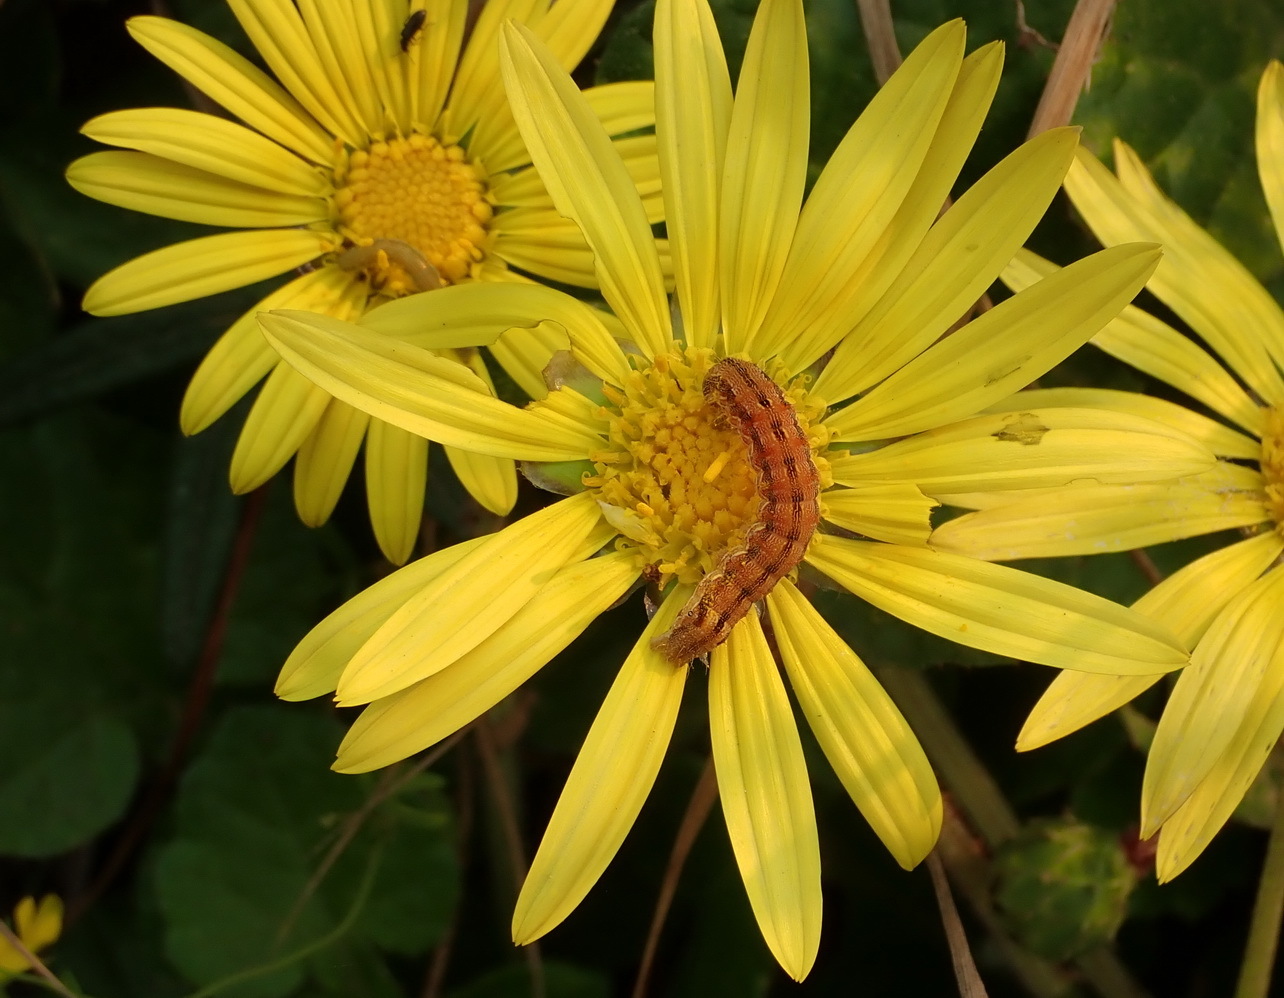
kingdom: Plantae
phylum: Tracheophyta
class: Magnoliopsida
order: Asterales
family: Asteraceae
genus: Arctotheca
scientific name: Arctotheca prostrata
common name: Capeweed
